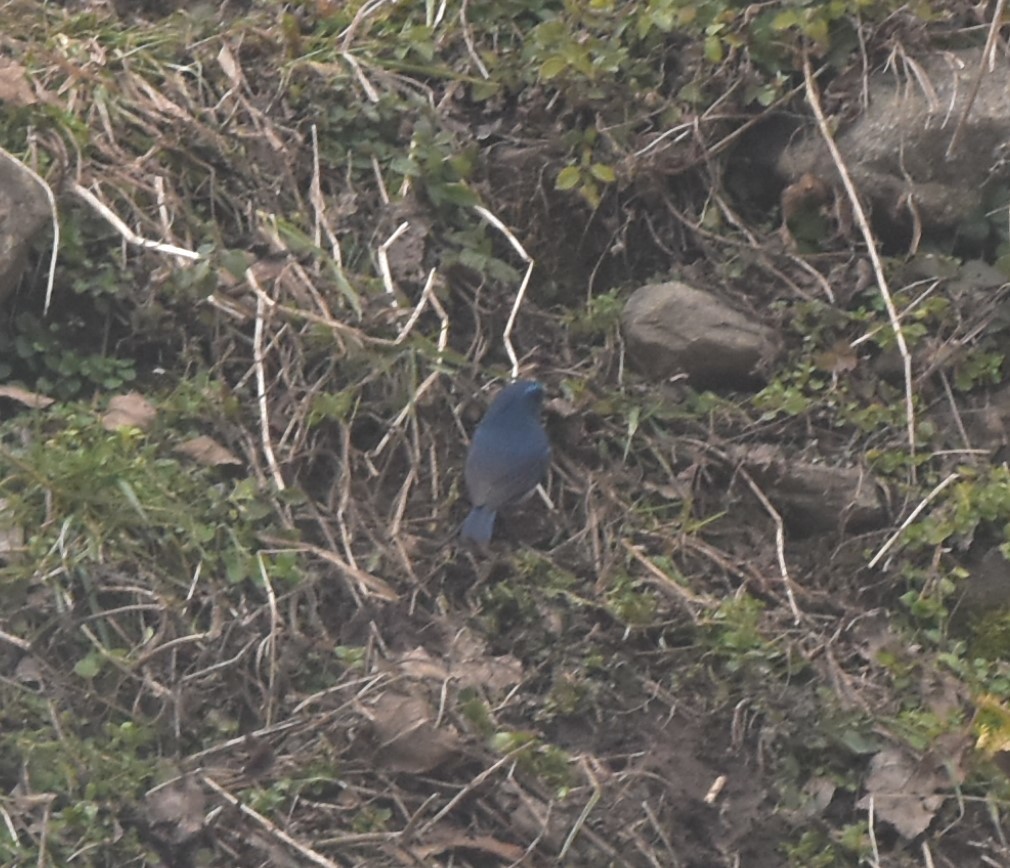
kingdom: Animalia
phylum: Chordata
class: Aves
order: Passeriformes
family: Muscicapidae
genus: Tarsiger
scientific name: Tarsiger rufilatus
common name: Himalayan bluetail
